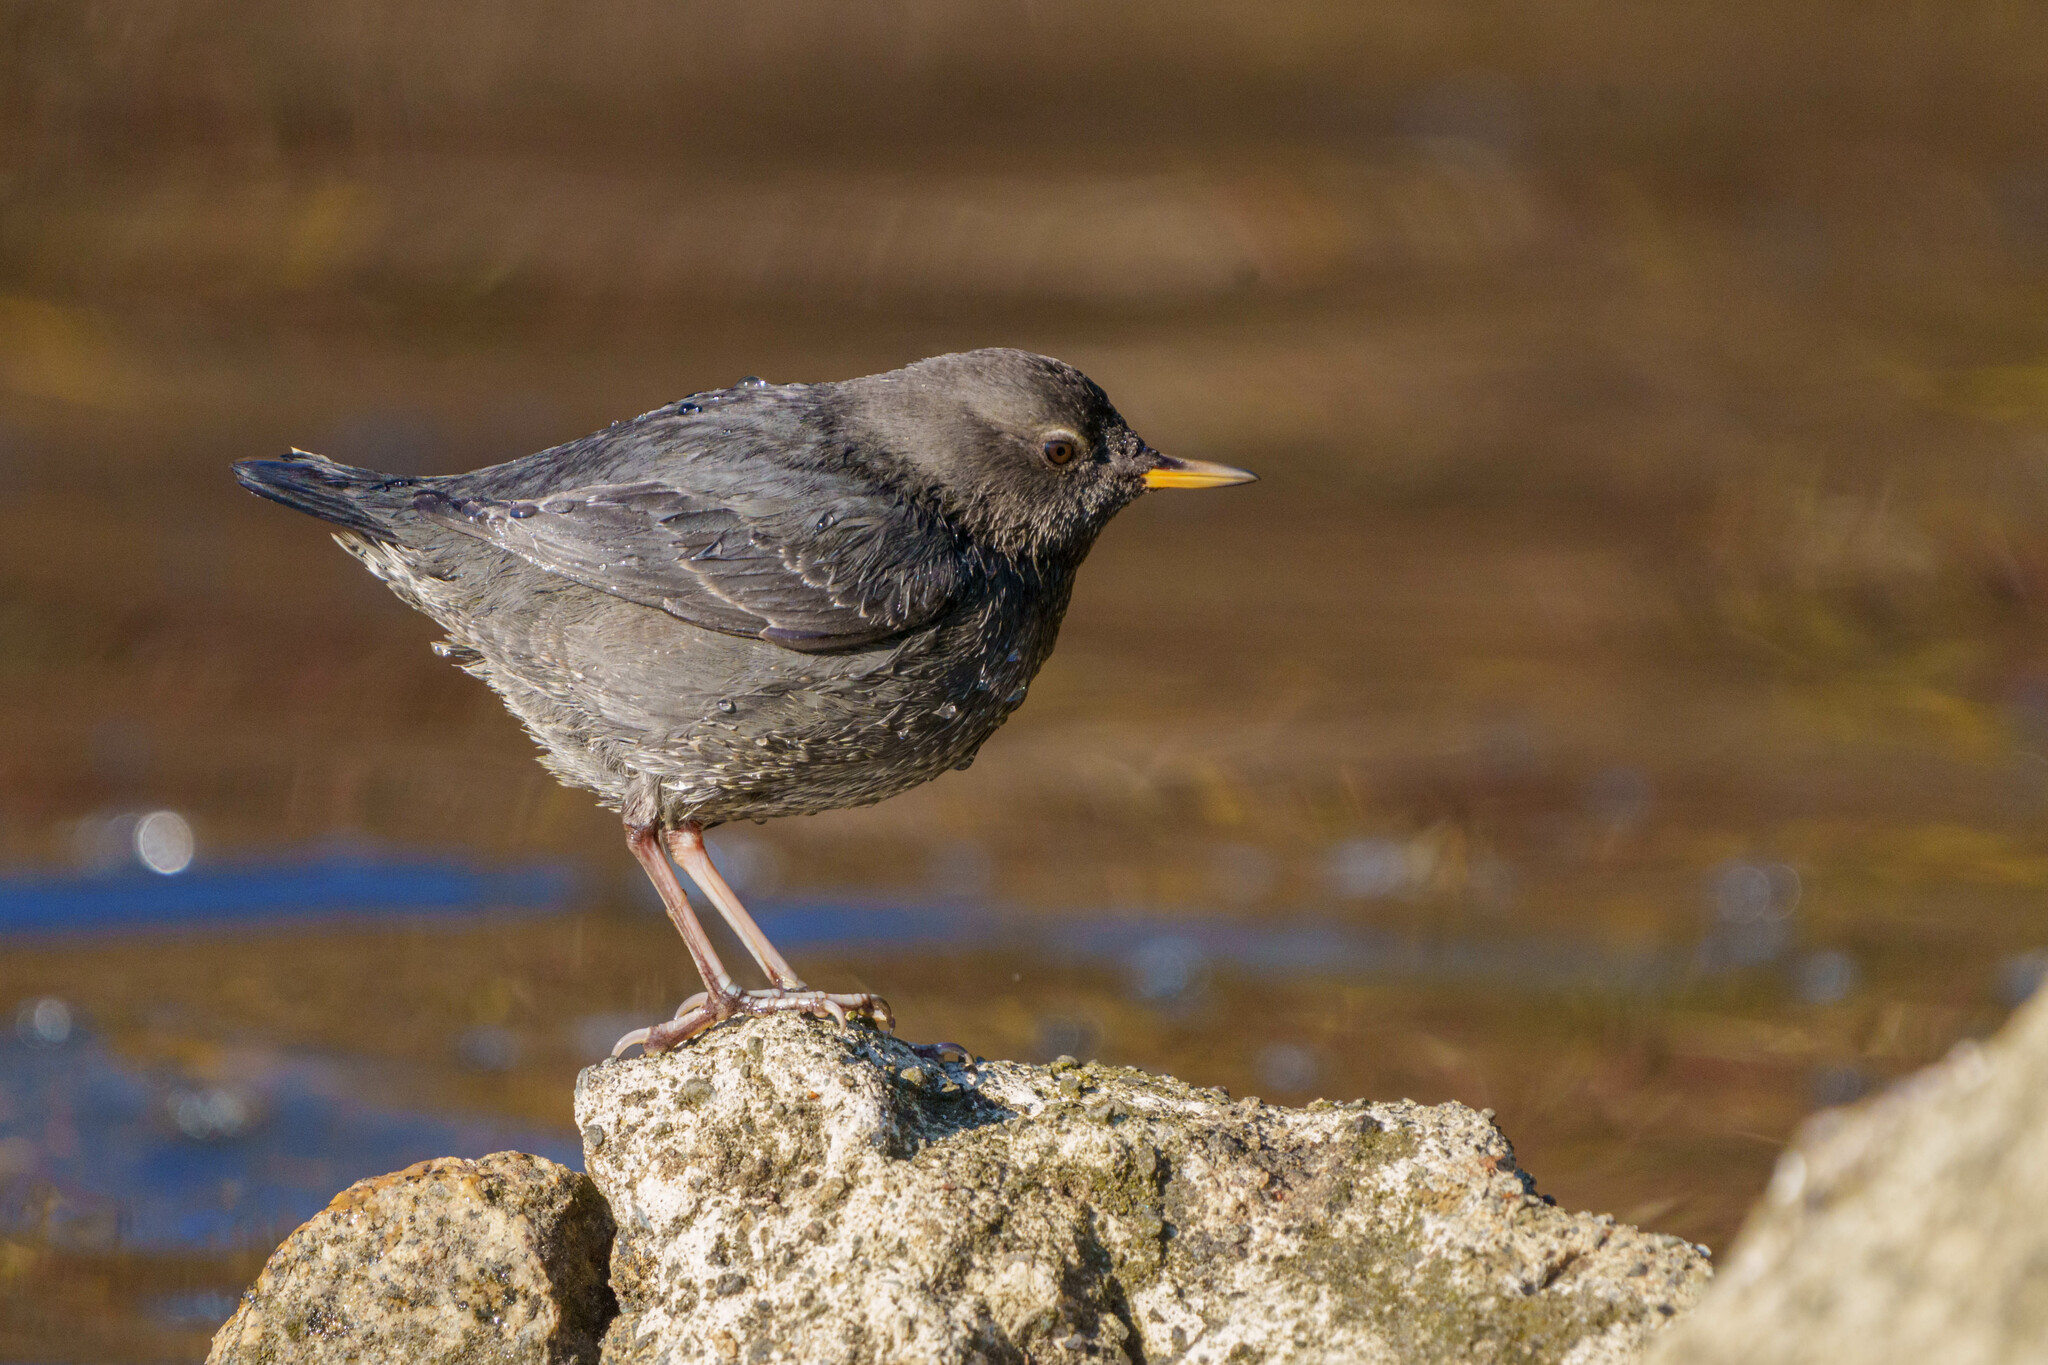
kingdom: Animalia
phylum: Chordata
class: Aves
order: Passeriformes
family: Cinclidae
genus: Cinclus
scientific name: Cinclus mexicanus
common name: American dipper
